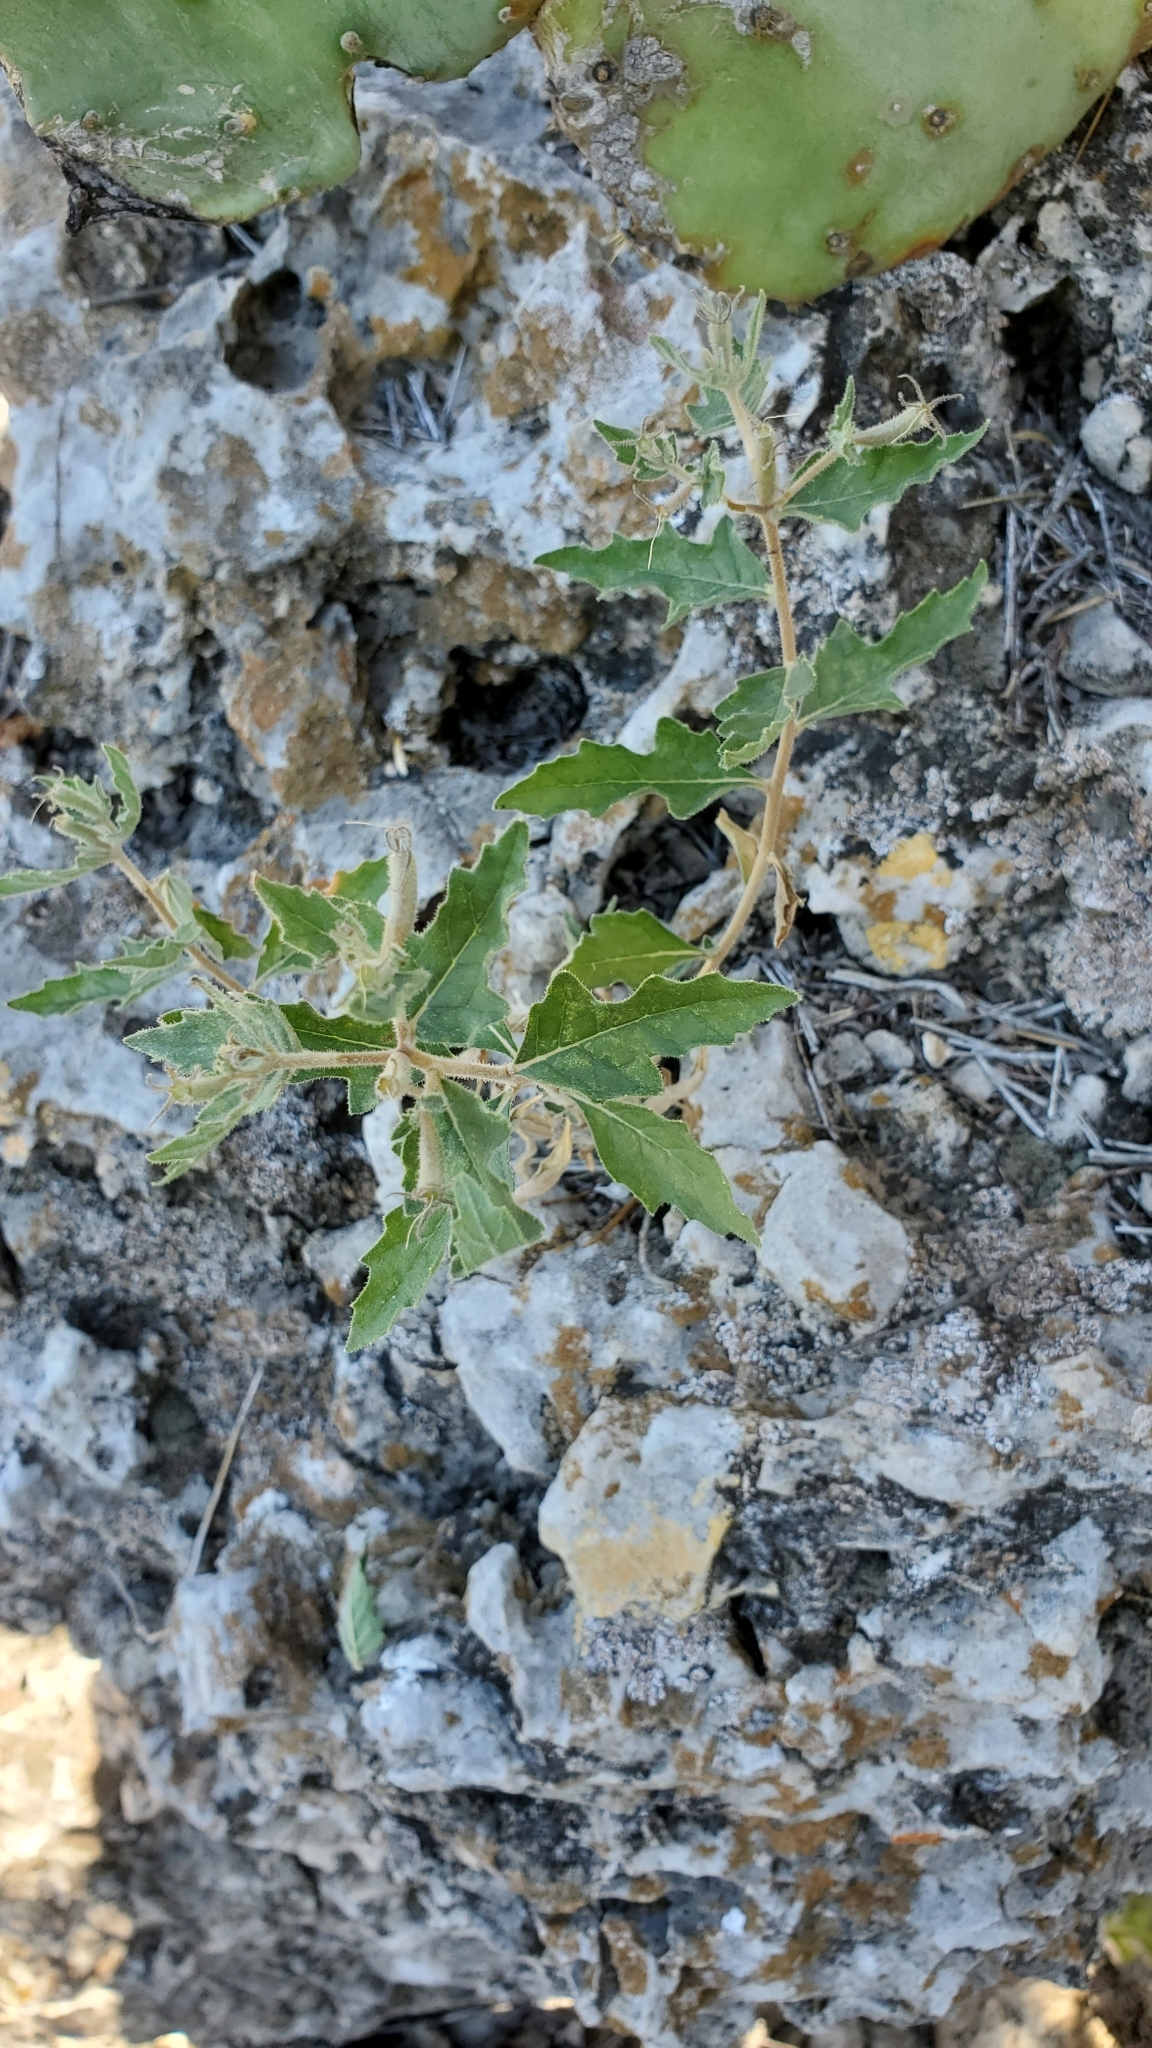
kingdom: Plantae
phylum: Tracheophyta
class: Magnoliopsida
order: Cornales
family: Loasaceae
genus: Mentzelia
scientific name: Mentzelia oligosperma
